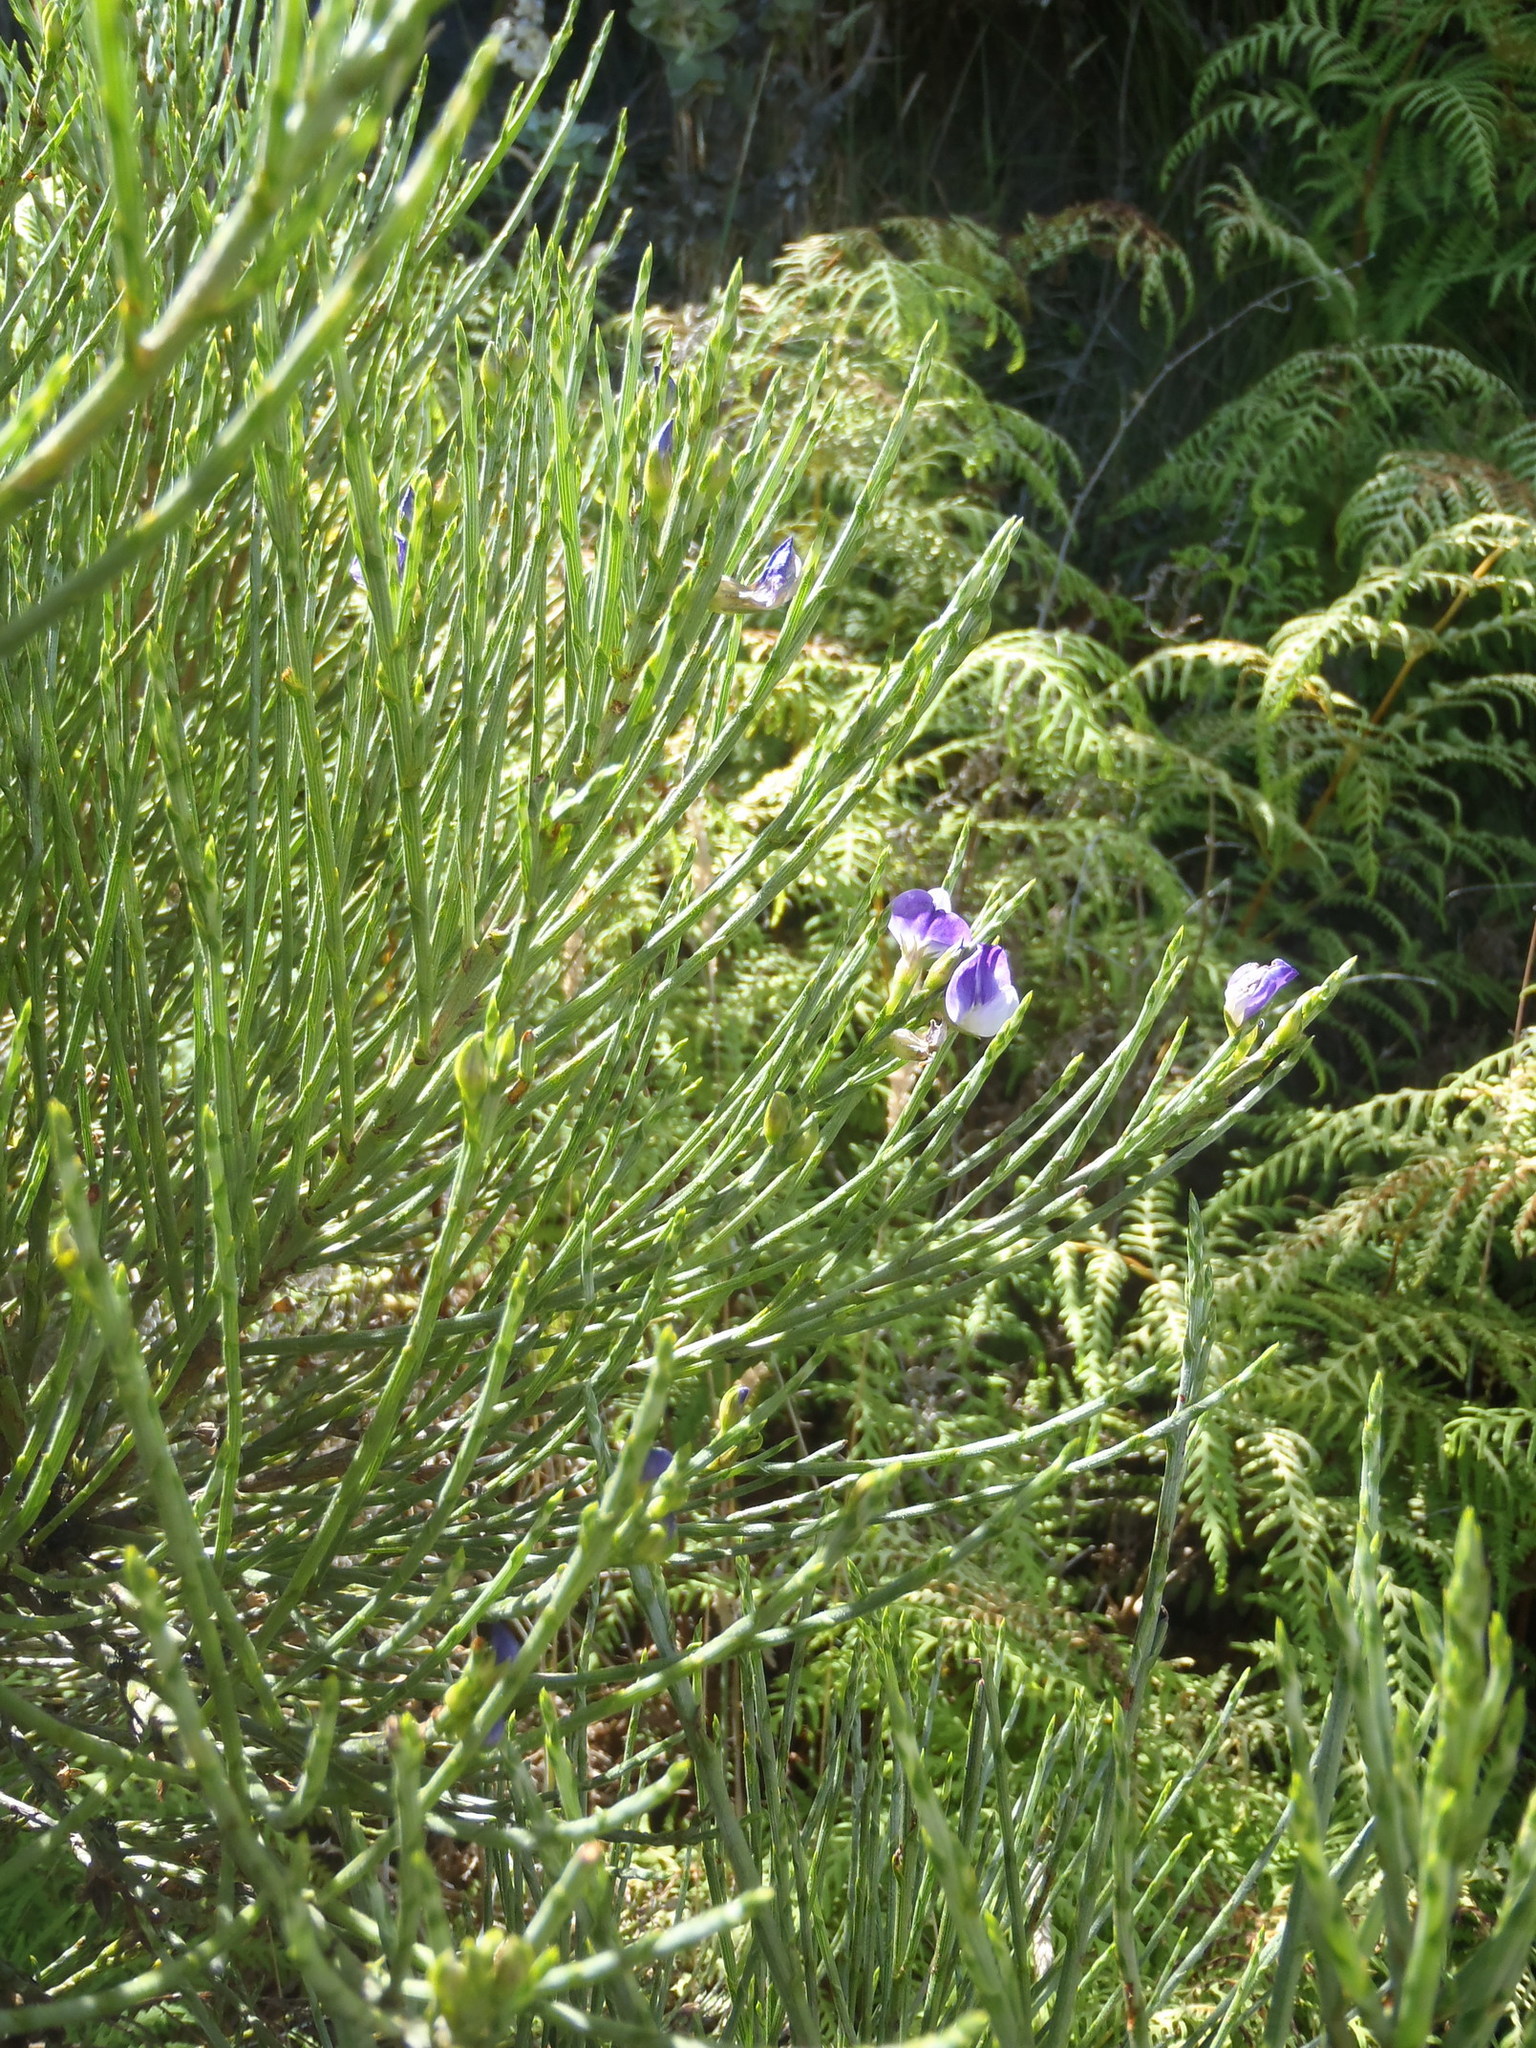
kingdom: Plantae
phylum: Tracheophyta
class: Magnoliopsida
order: Fabales
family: Fabaceae
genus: Psoralea
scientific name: Psoralea aphylla
